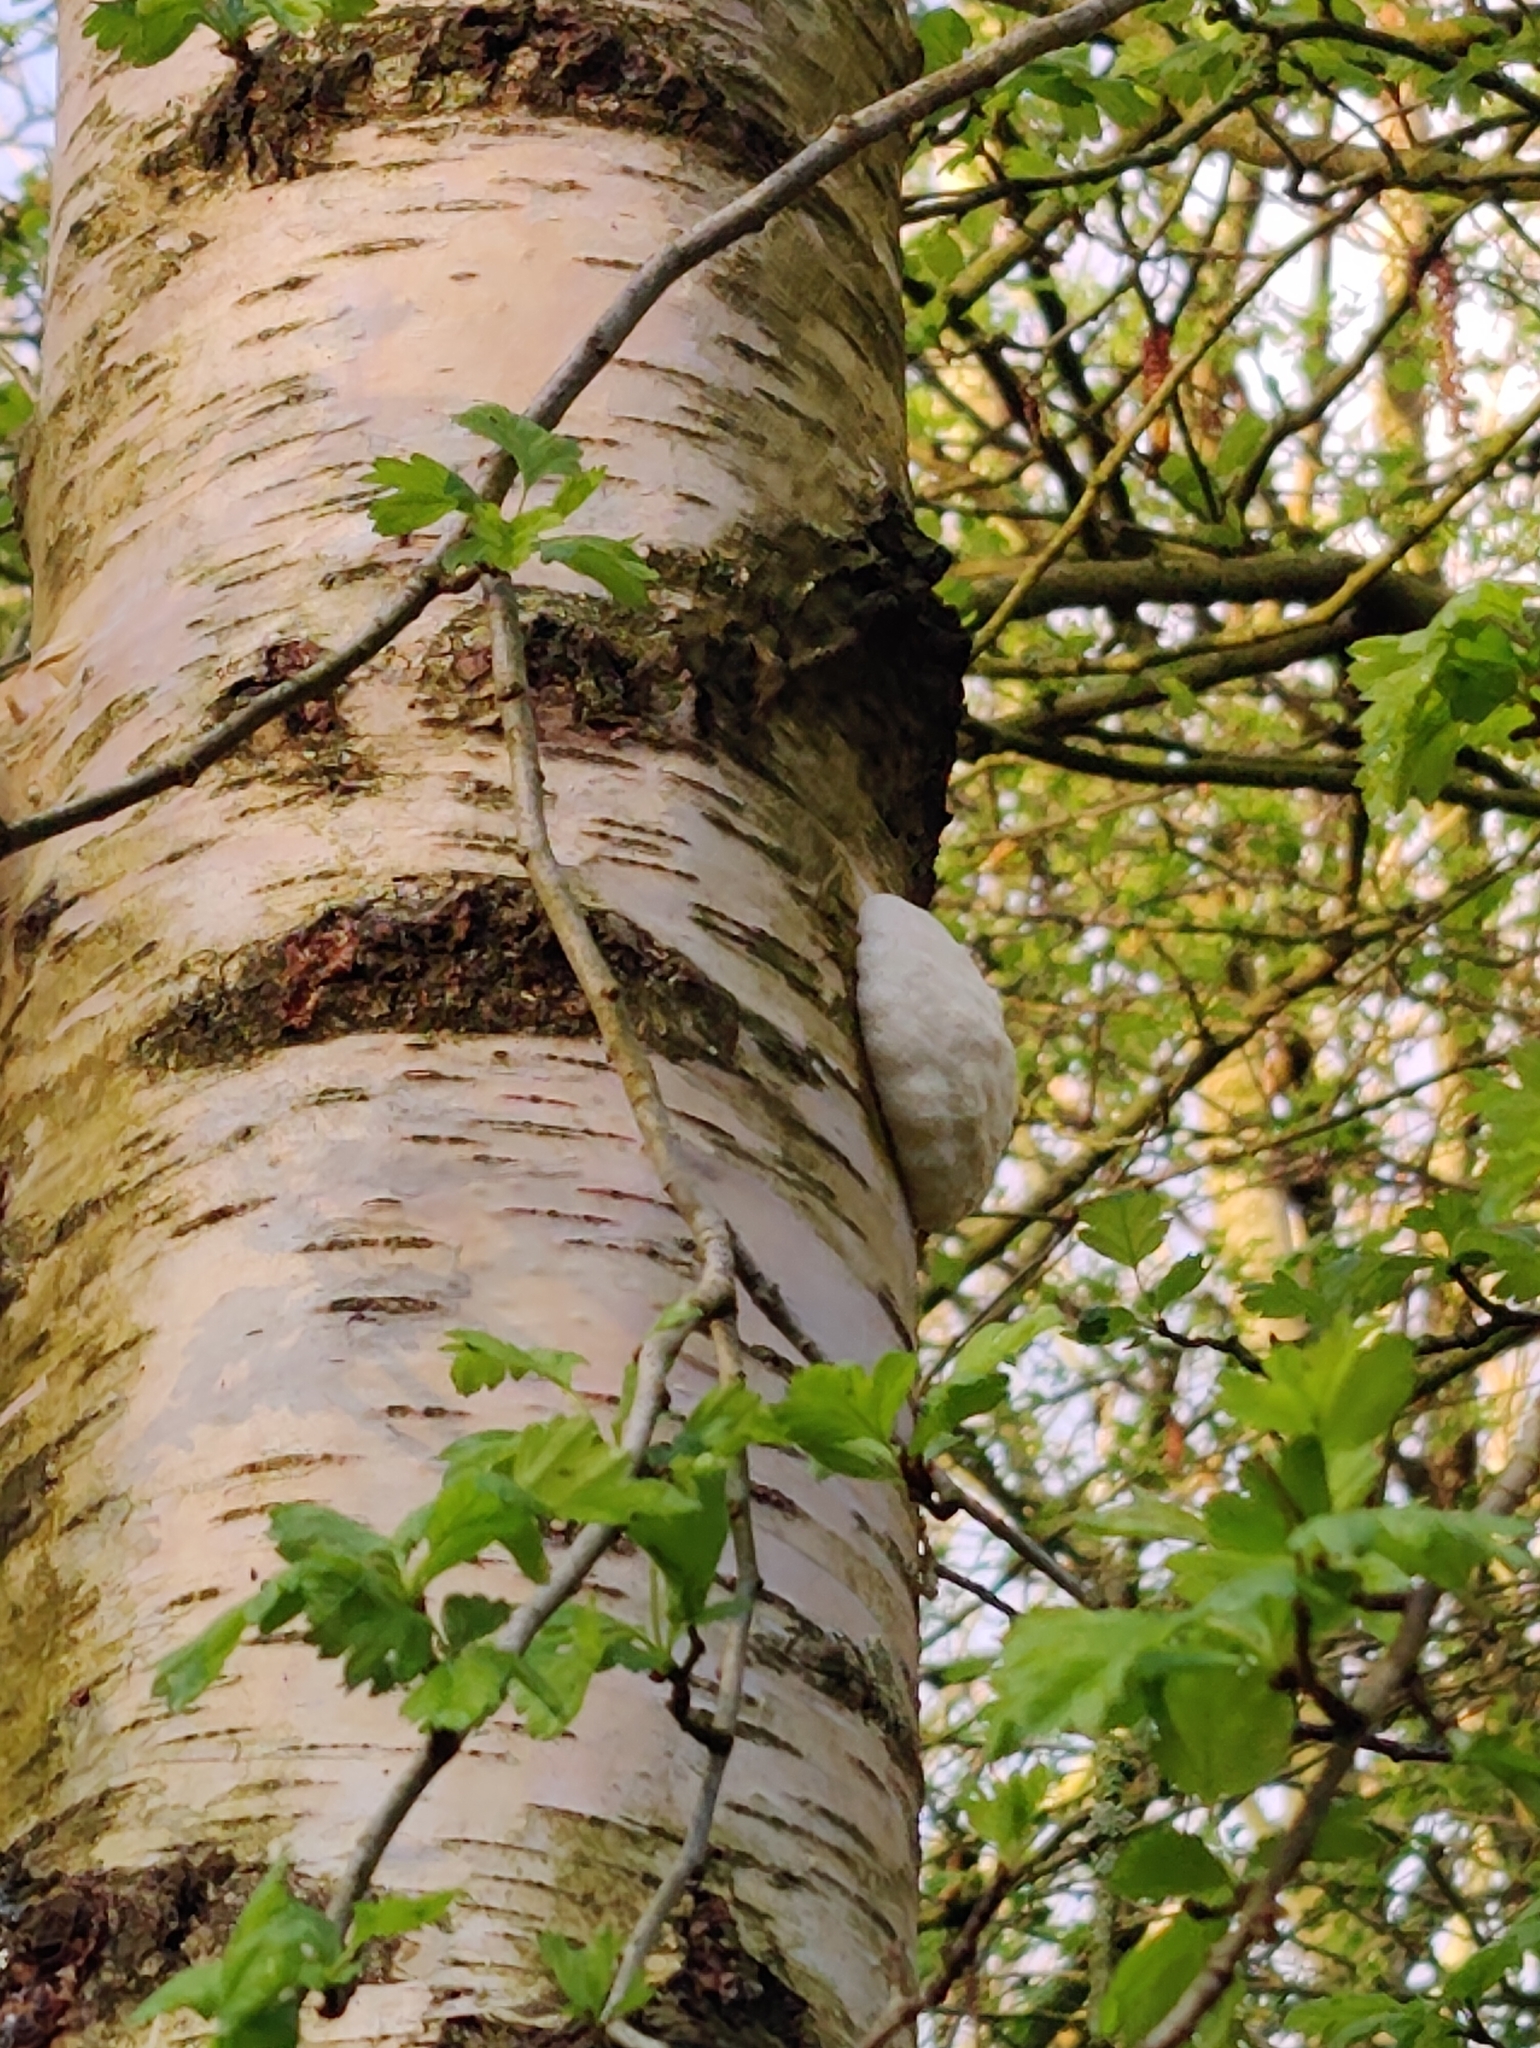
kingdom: Protozoa
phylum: Mycetozoa
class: Myxomycetes
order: Cribrariales
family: Tubiferaceae
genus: Reticularia
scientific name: Reticularia lycoperdon
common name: False puffball
